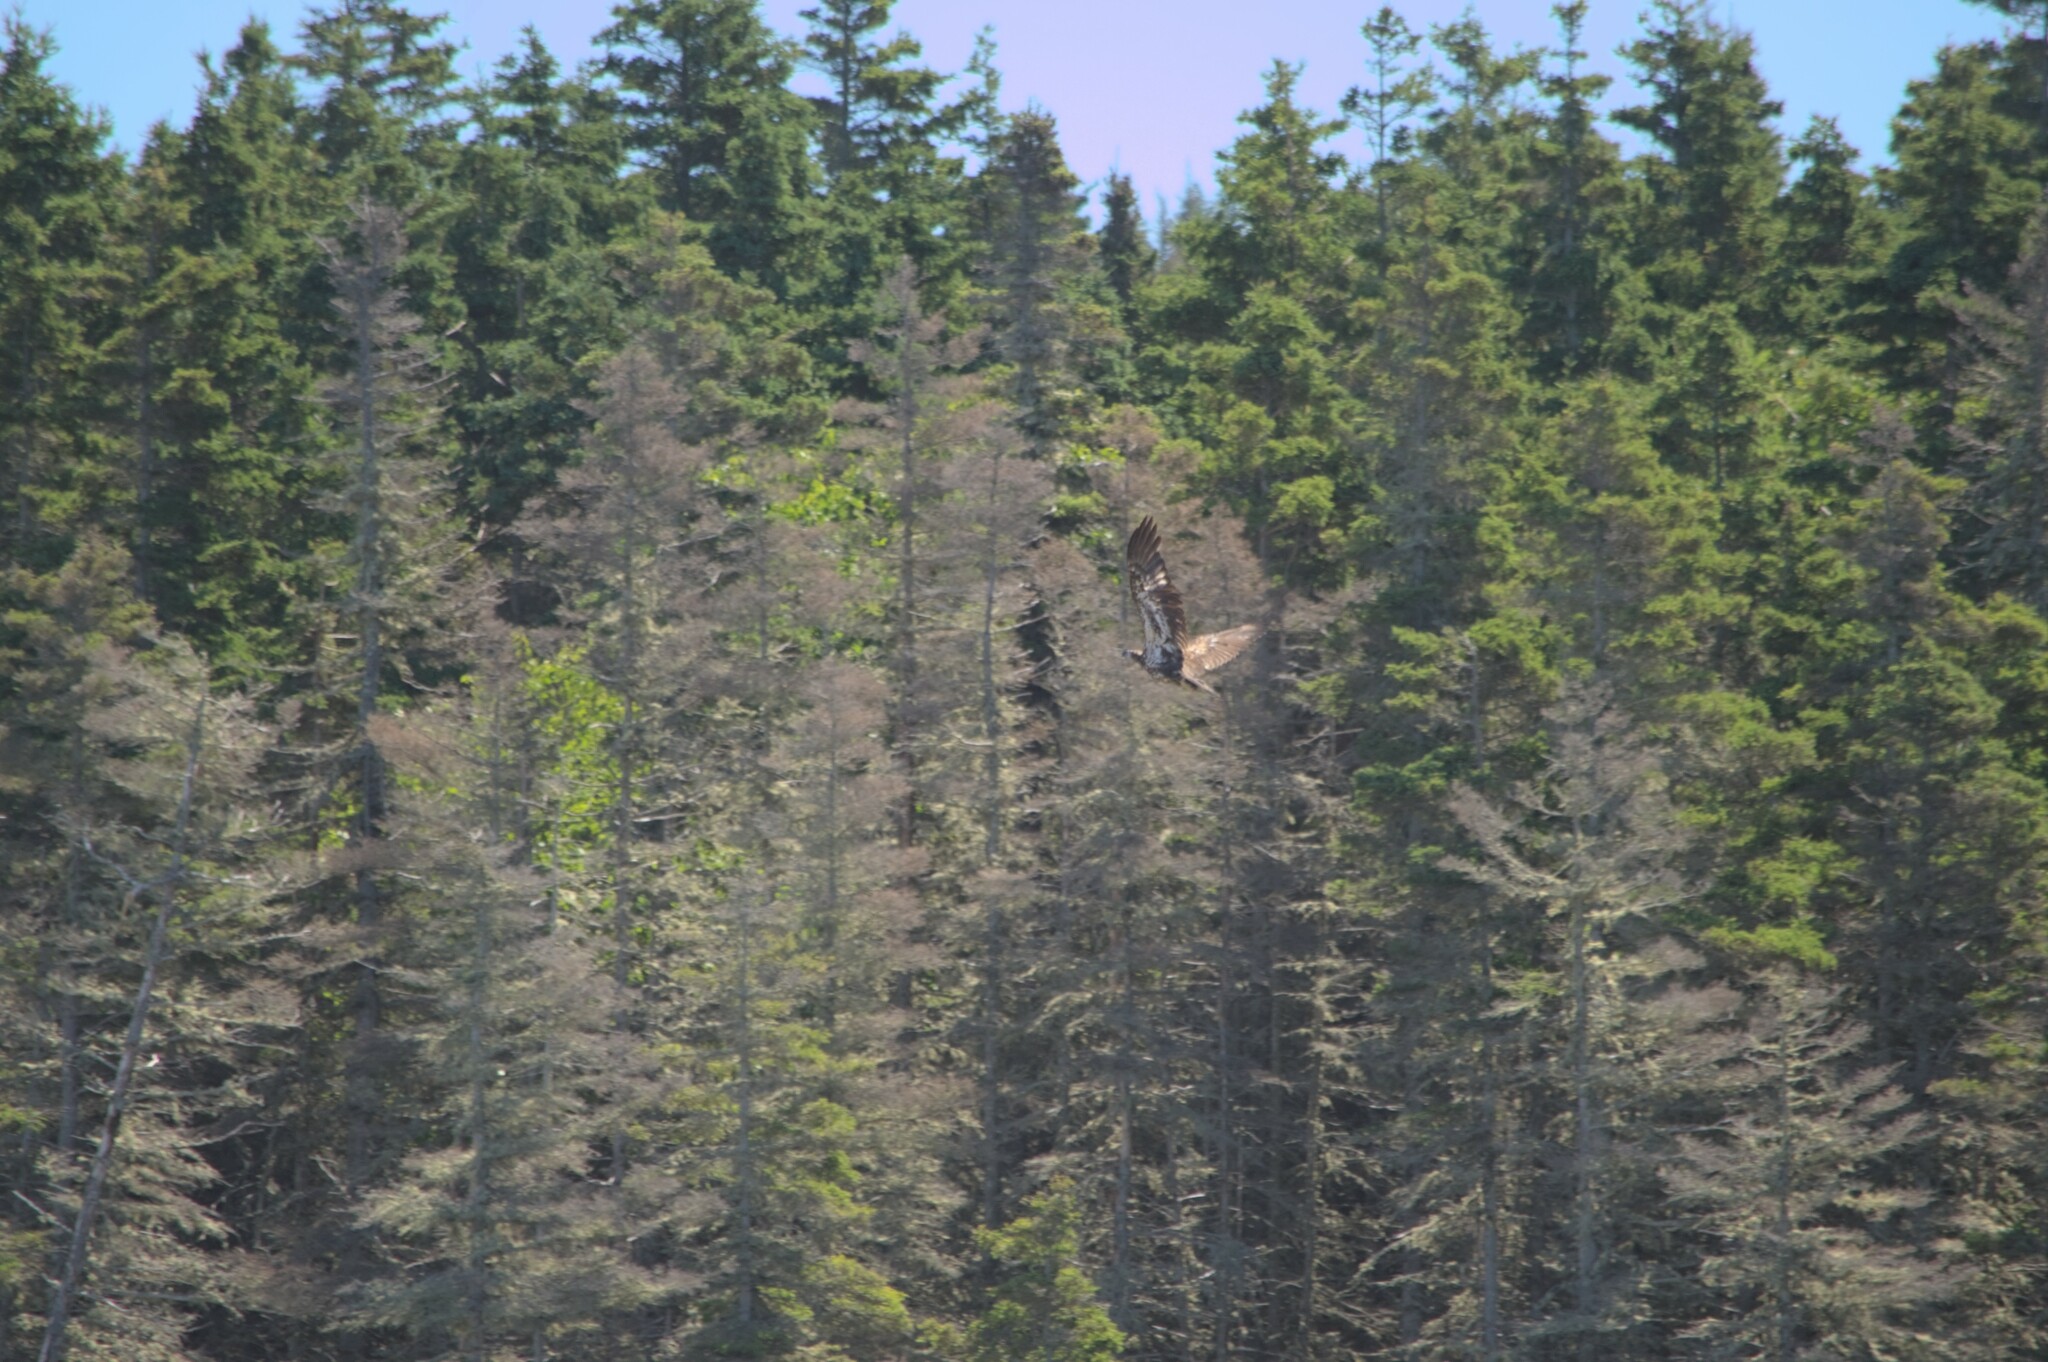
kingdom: Animalia
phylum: Chordata
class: Aves
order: Accipitriformes
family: Accipitridae
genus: Haliaeetus
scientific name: Haliaeetus leucocephalus
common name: Bald eagle
